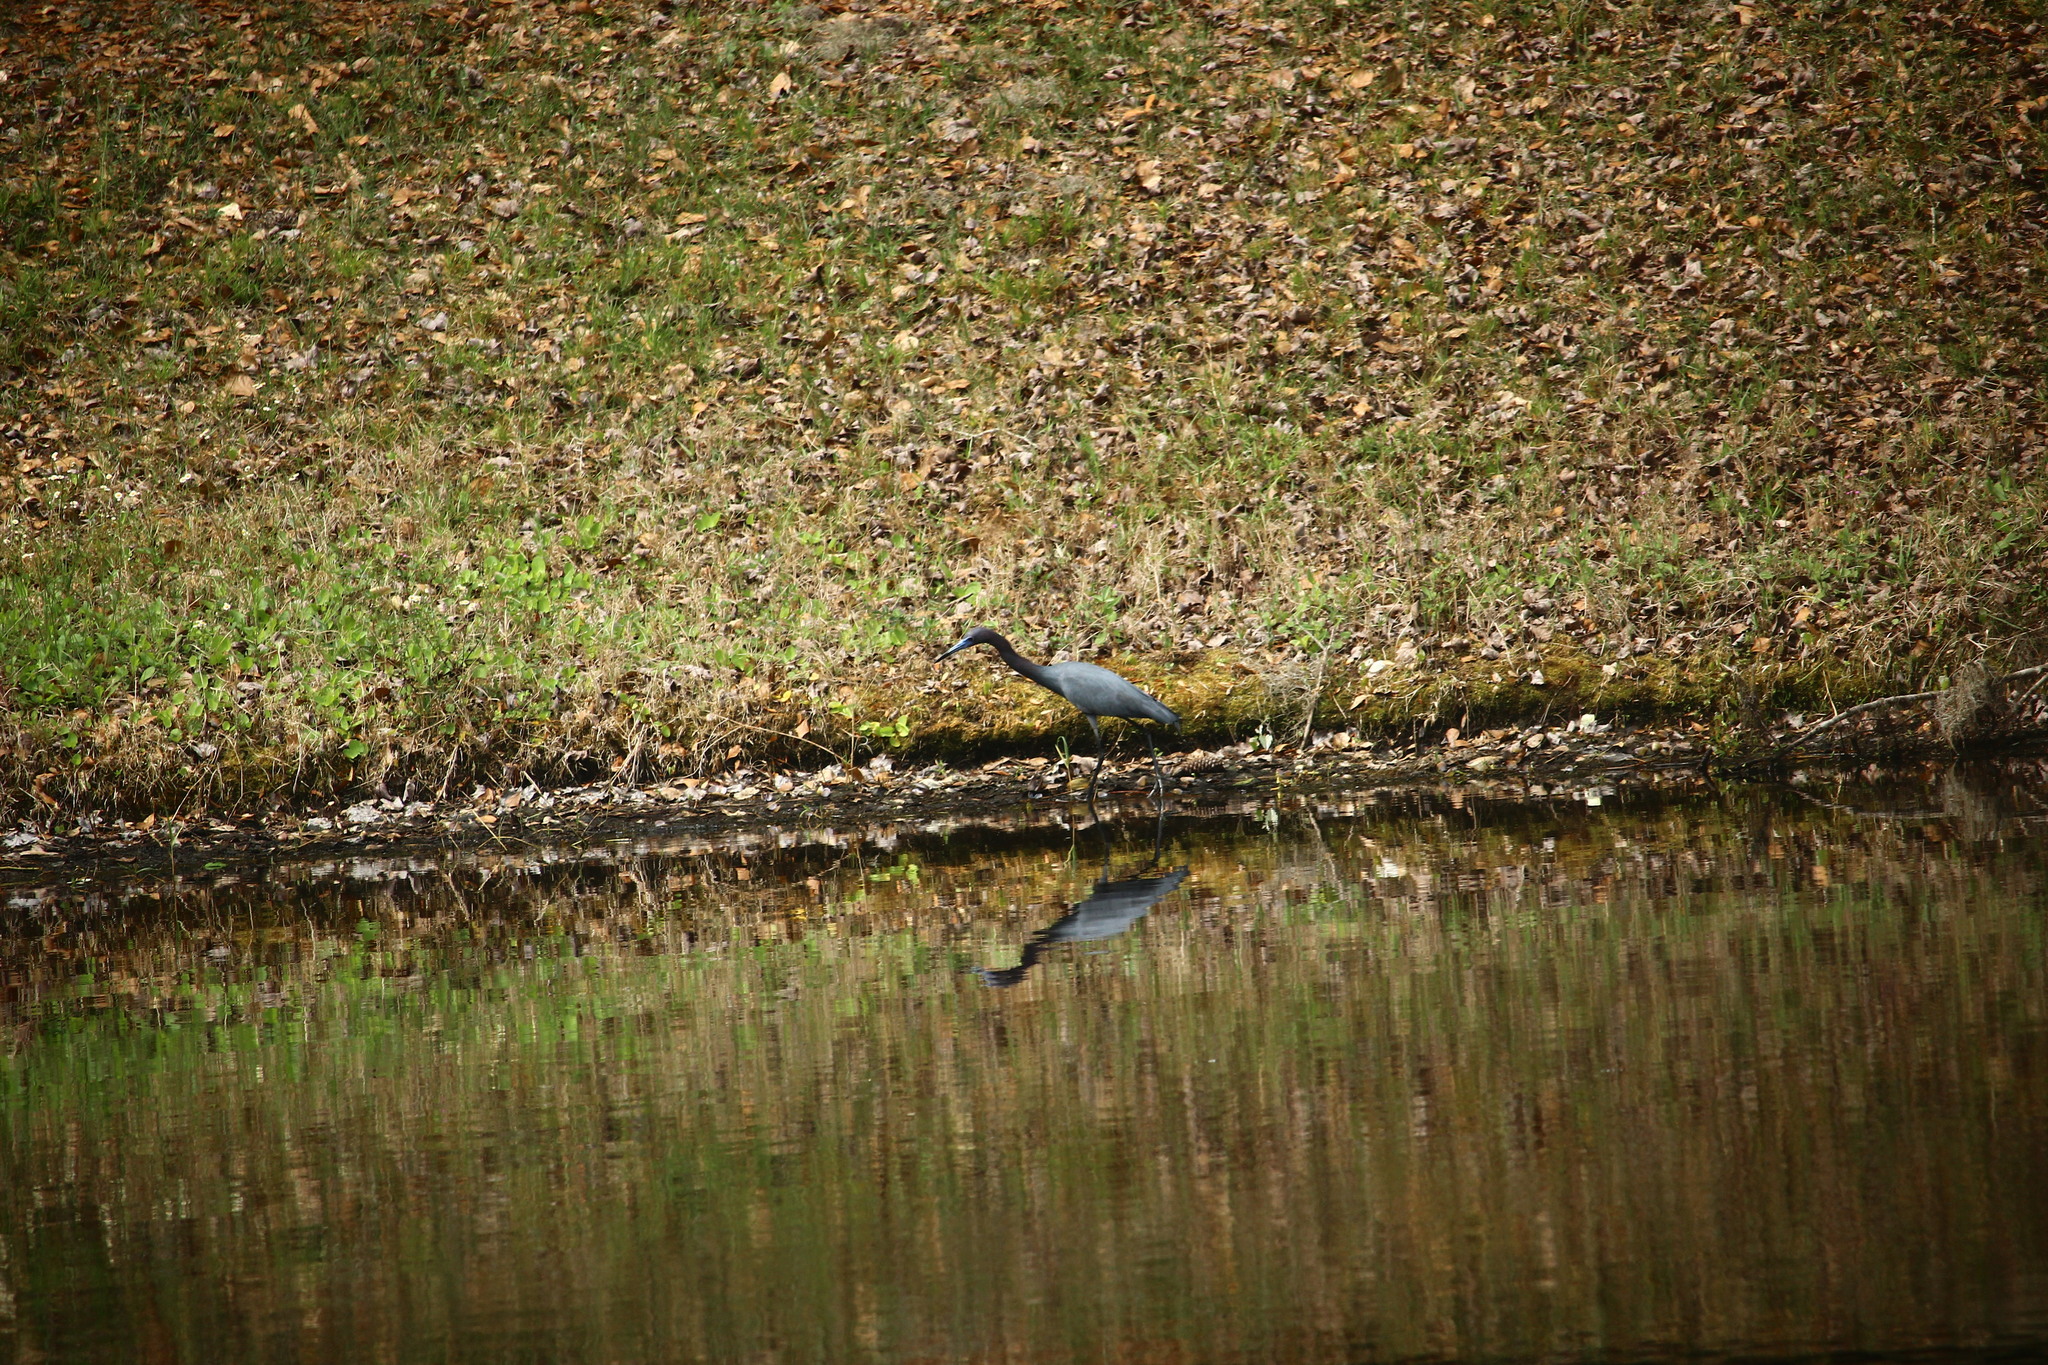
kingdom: Animalia
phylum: Chordata
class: Aves
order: Pelecaniformes
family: Ardeidae
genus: Egretta
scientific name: Egretta caerulea
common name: Little blue heron
